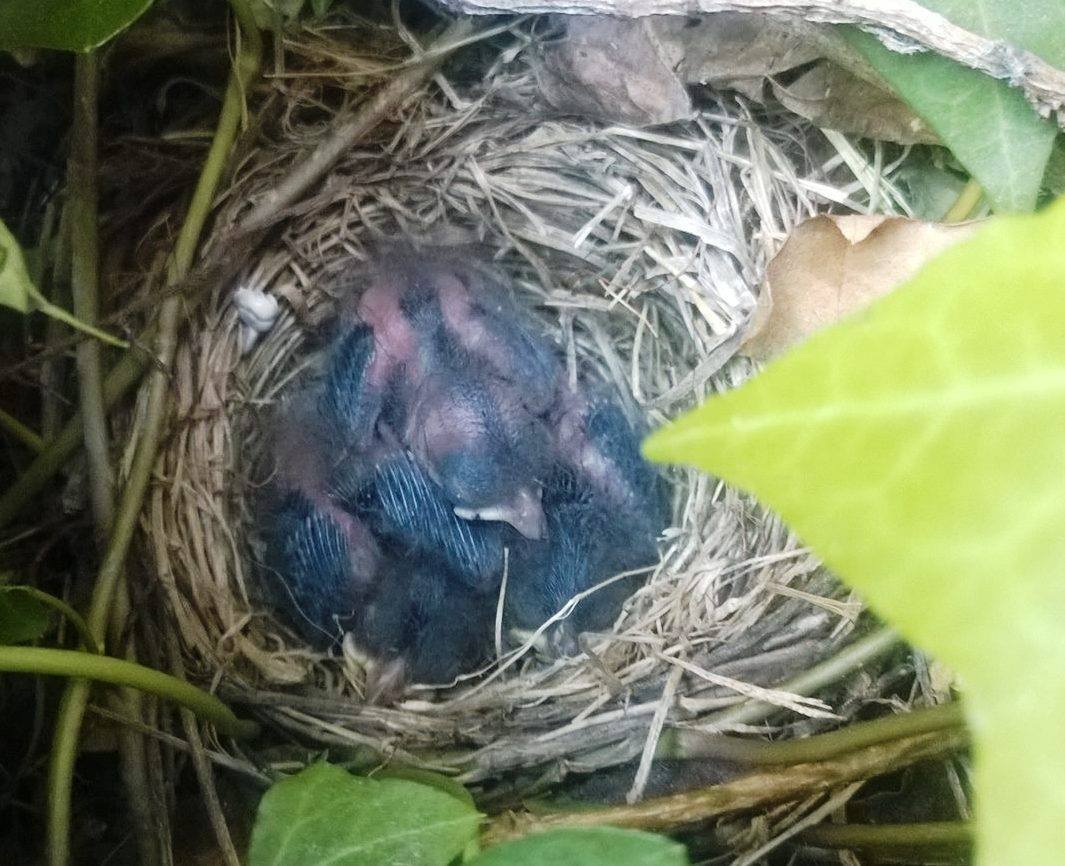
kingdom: Animalia
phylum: Chordata
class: Aves
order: Passeriformes
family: Passerellidae
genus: Junco
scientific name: Junco hyemalis
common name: Dark-eyed junco
